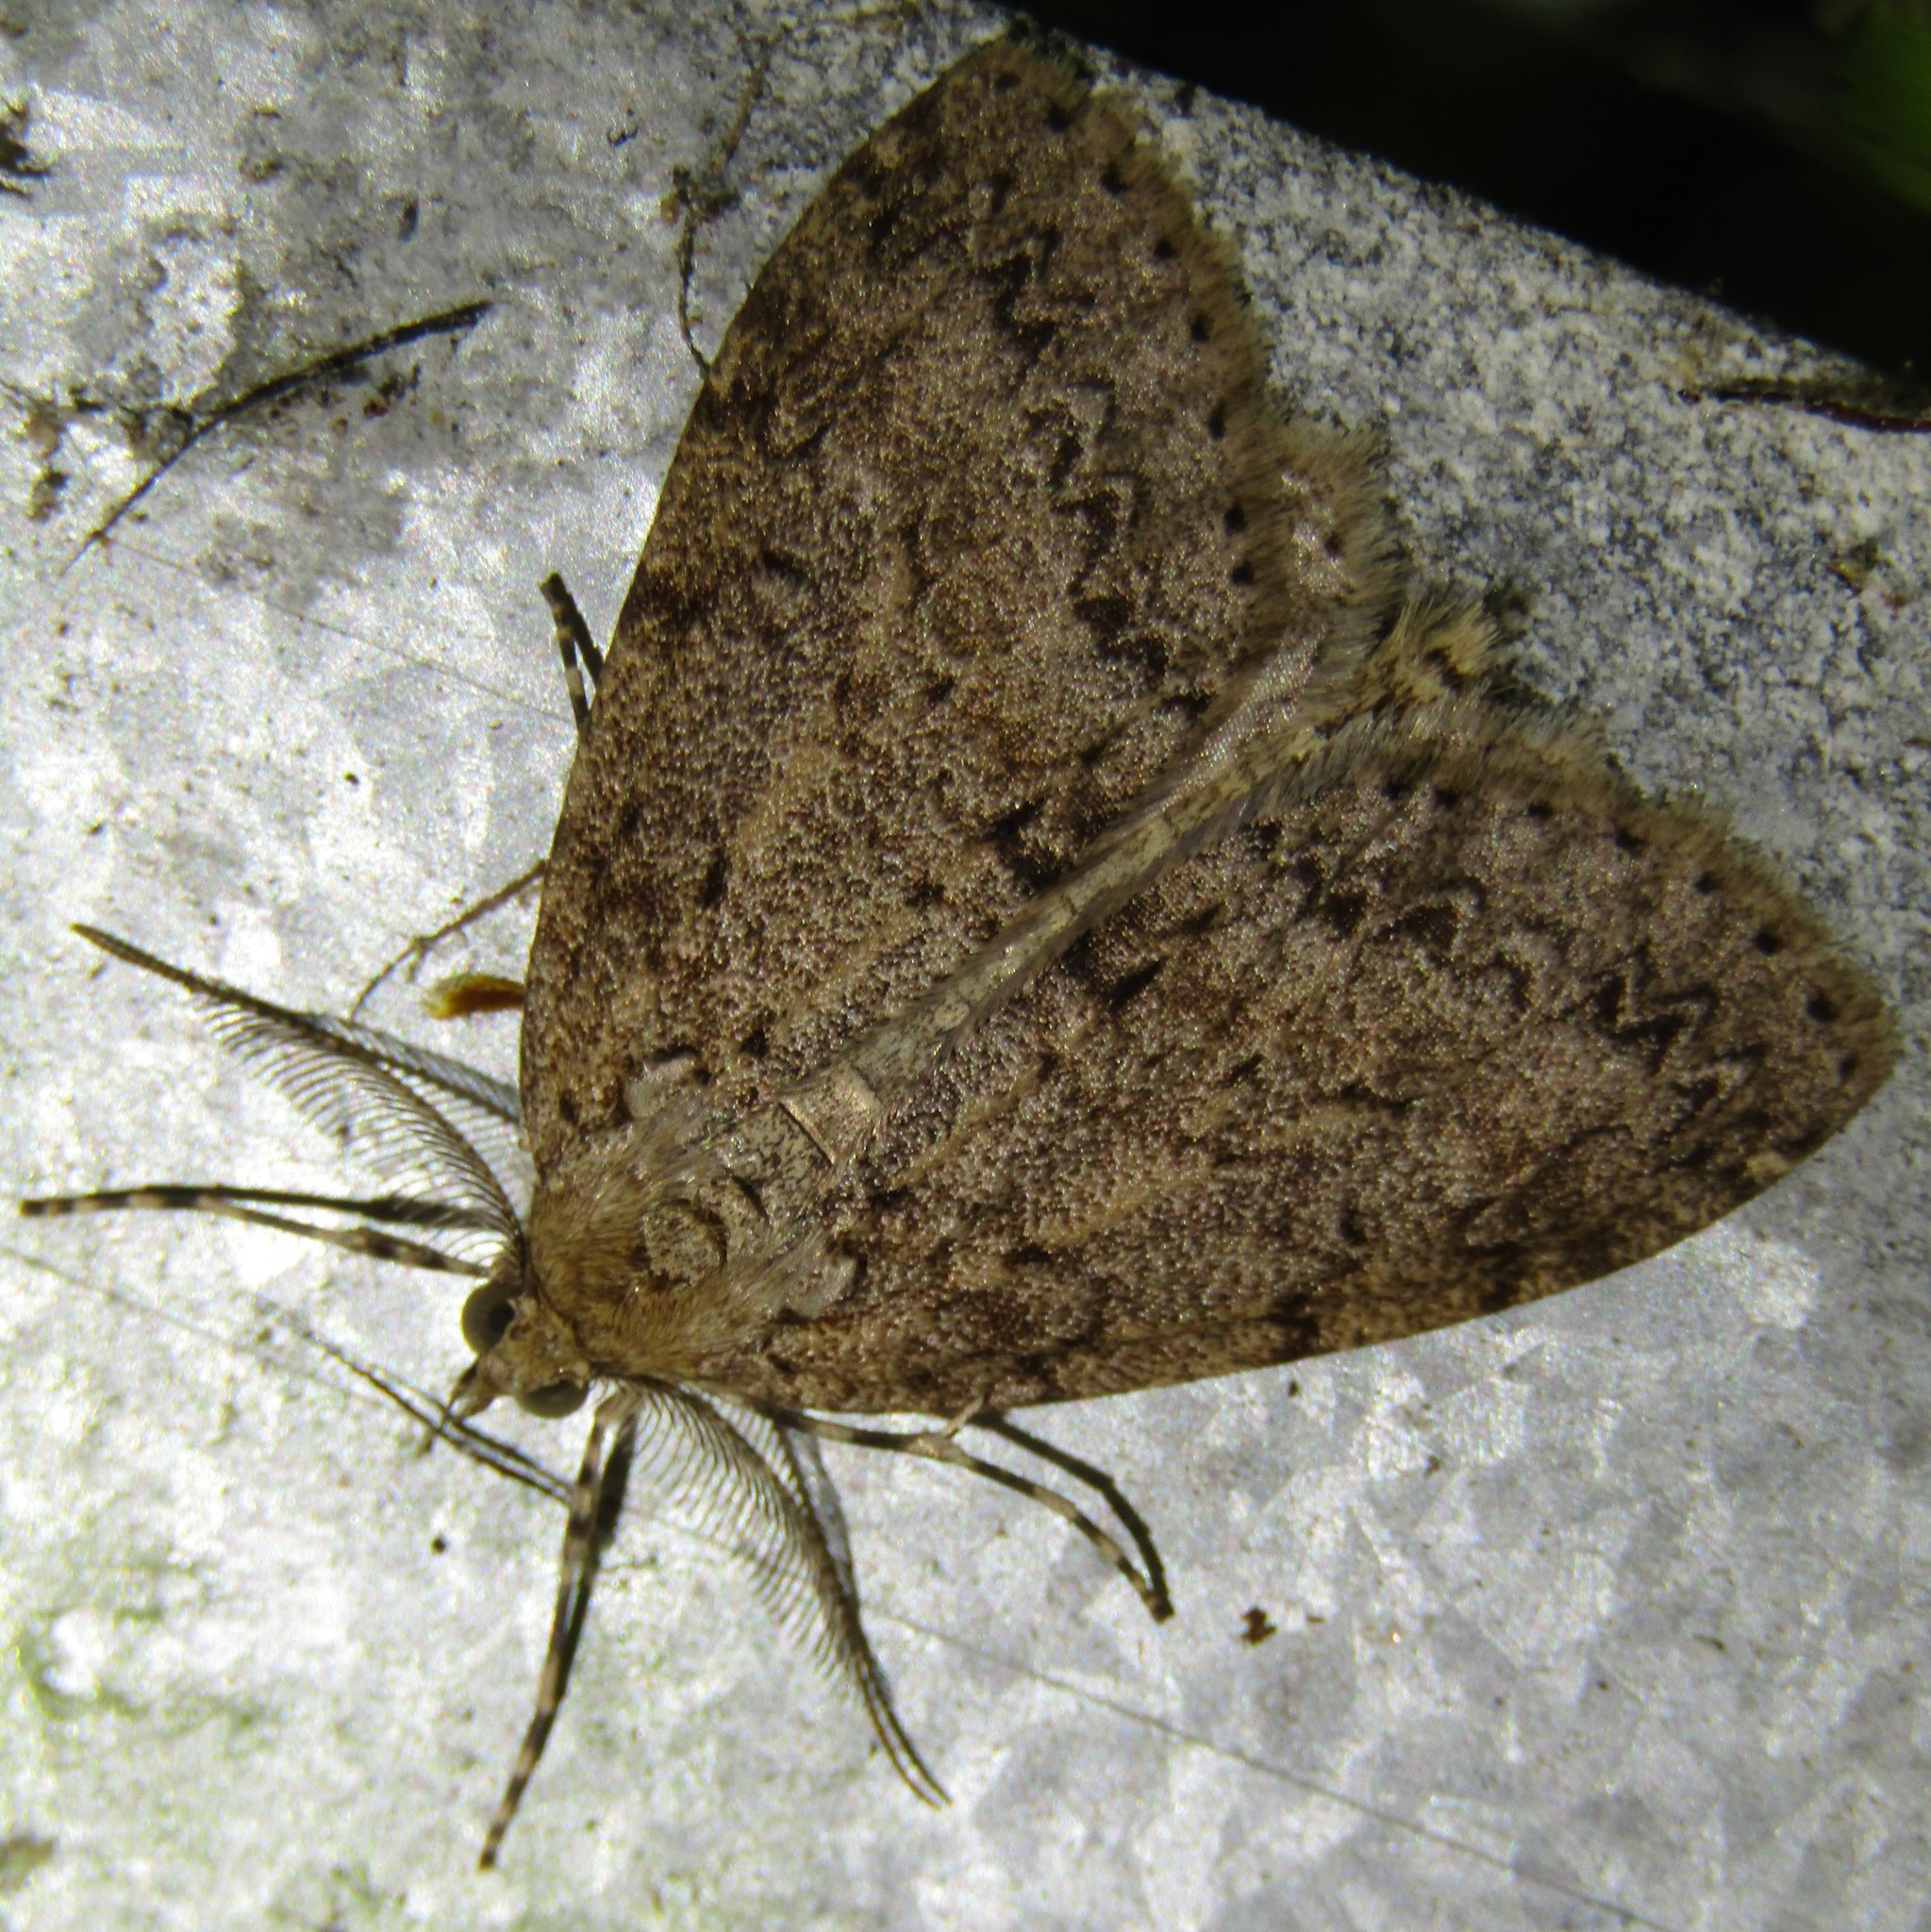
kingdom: Animalia
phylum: Arthropoda
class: Insecta
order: Lepidoptera
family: Geometridae
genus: Pseudocoremia
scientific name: Pseudocoremia fenerata
